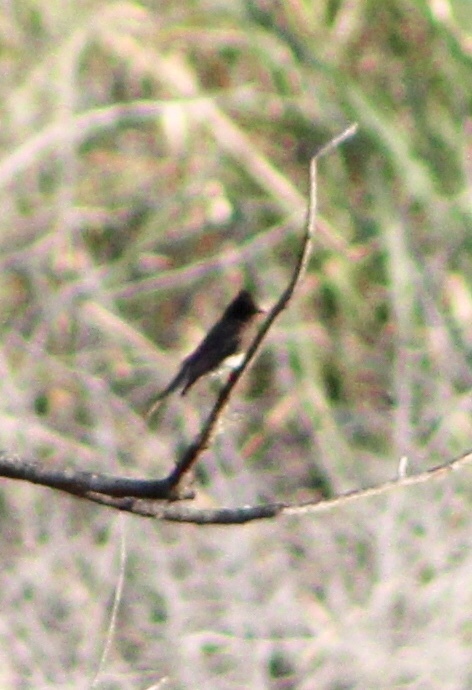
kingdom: Animalia
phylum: Chordata
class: Aves
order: Passeriformes
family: Tyrannidae
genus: Sayornis
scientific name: Sayornis nigricans
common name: Black phoebe
